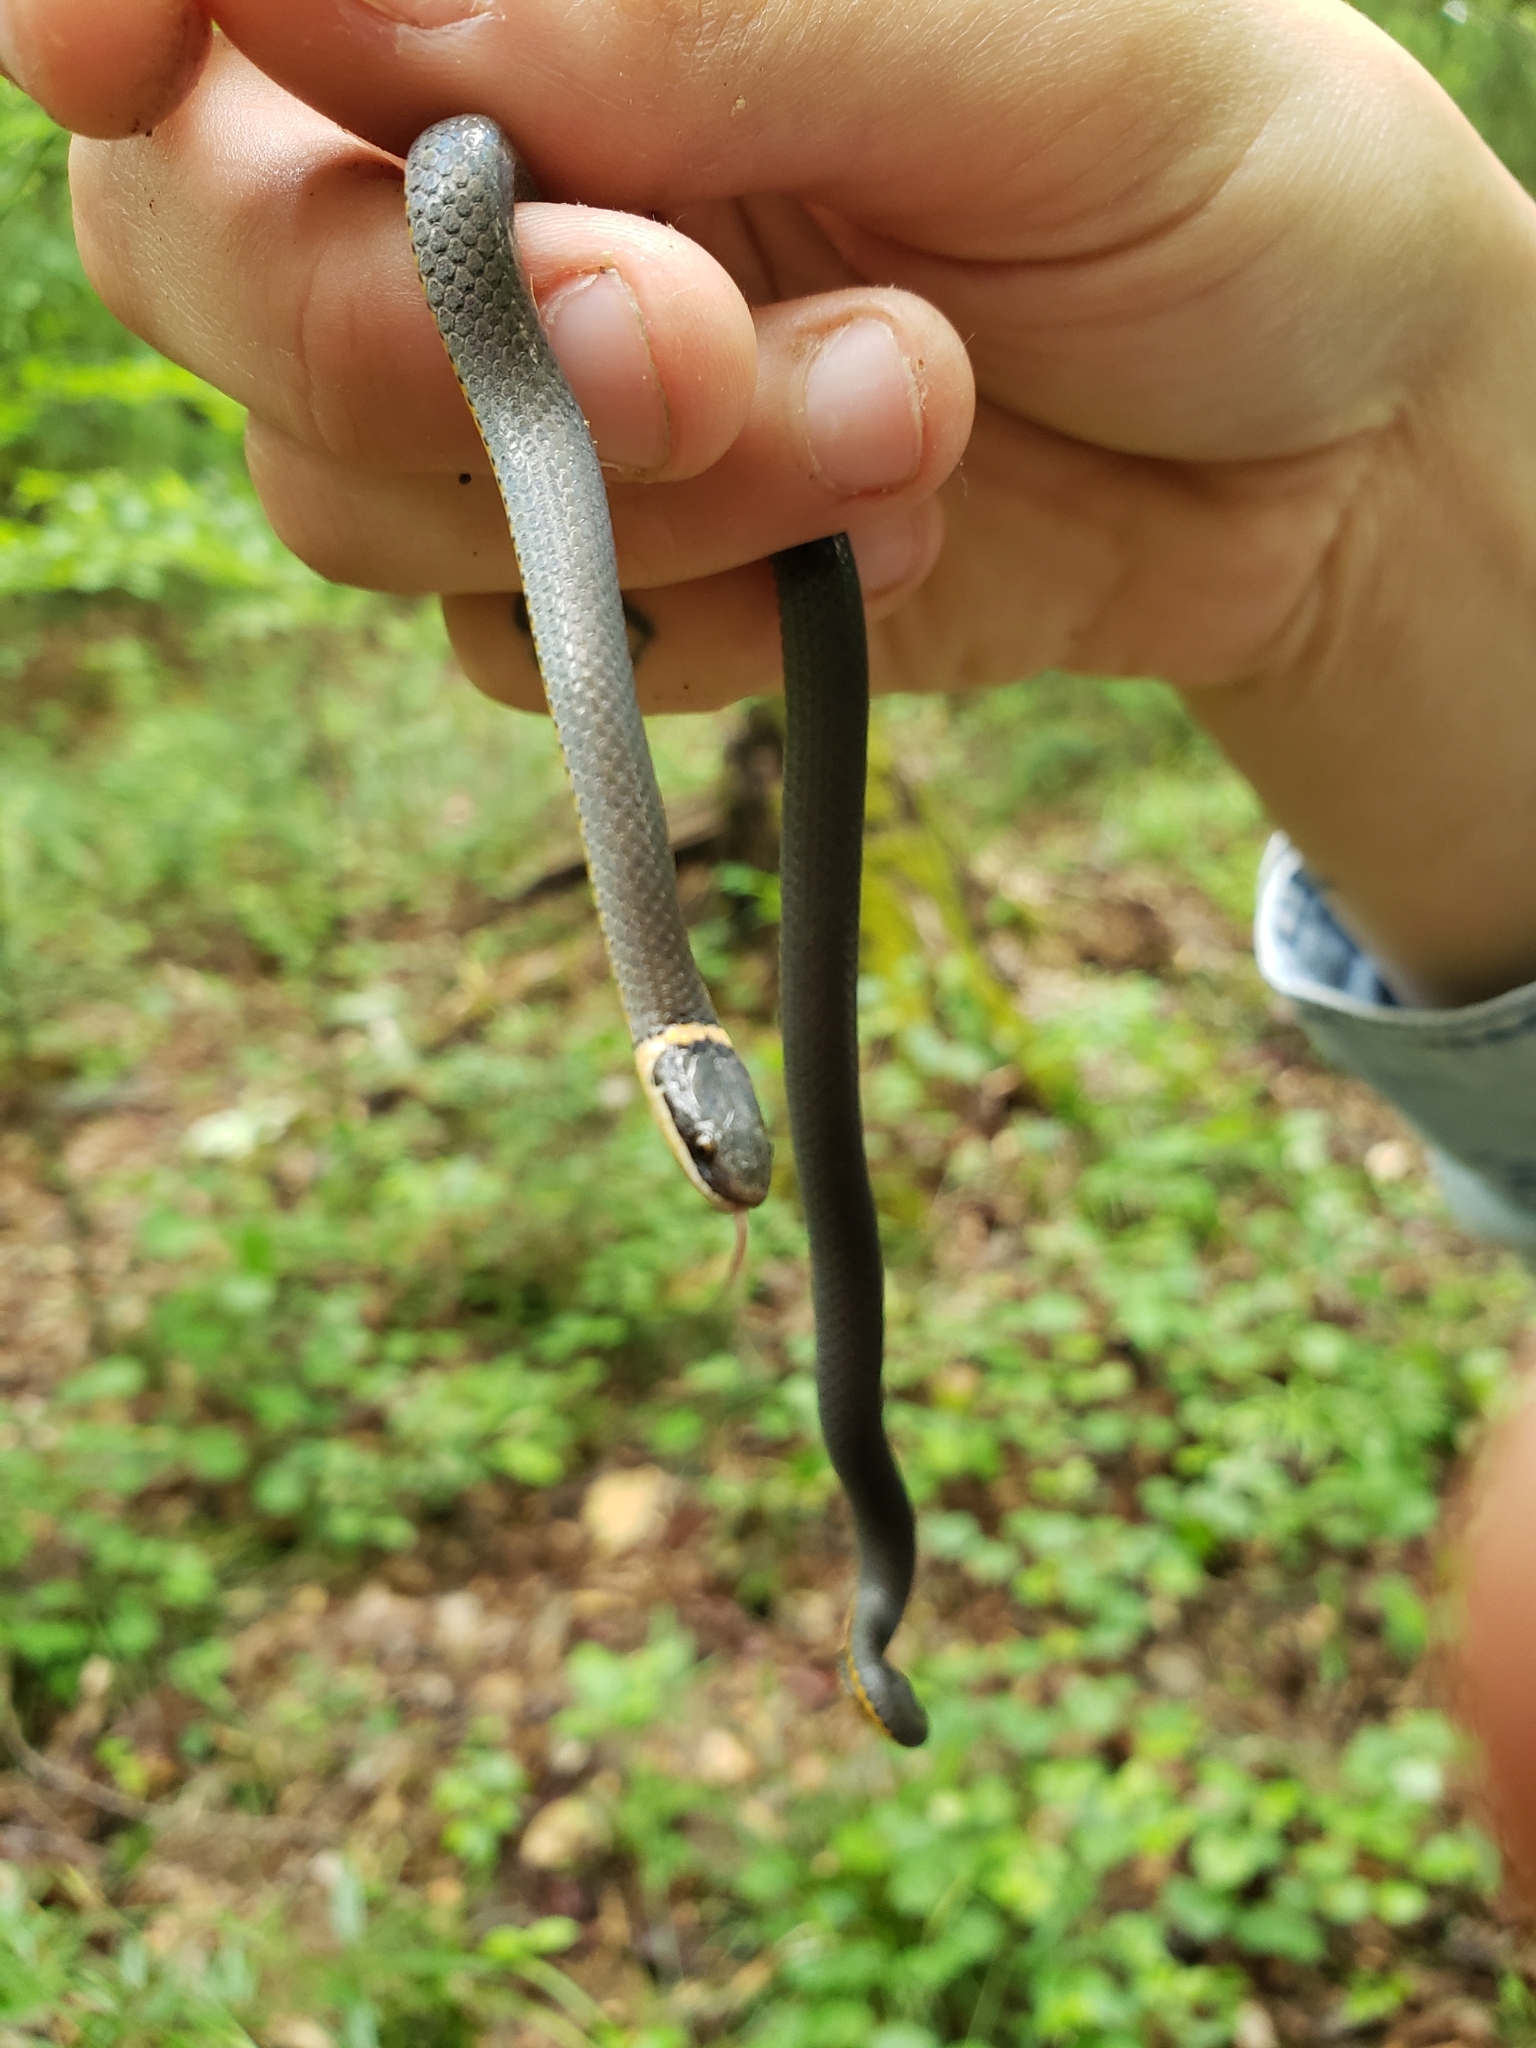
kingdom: Animalia
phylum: Chordata
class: Squamata
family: Colubridae
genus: Diadophis
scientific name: Diadophis punctatus
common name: Ringneck snake
